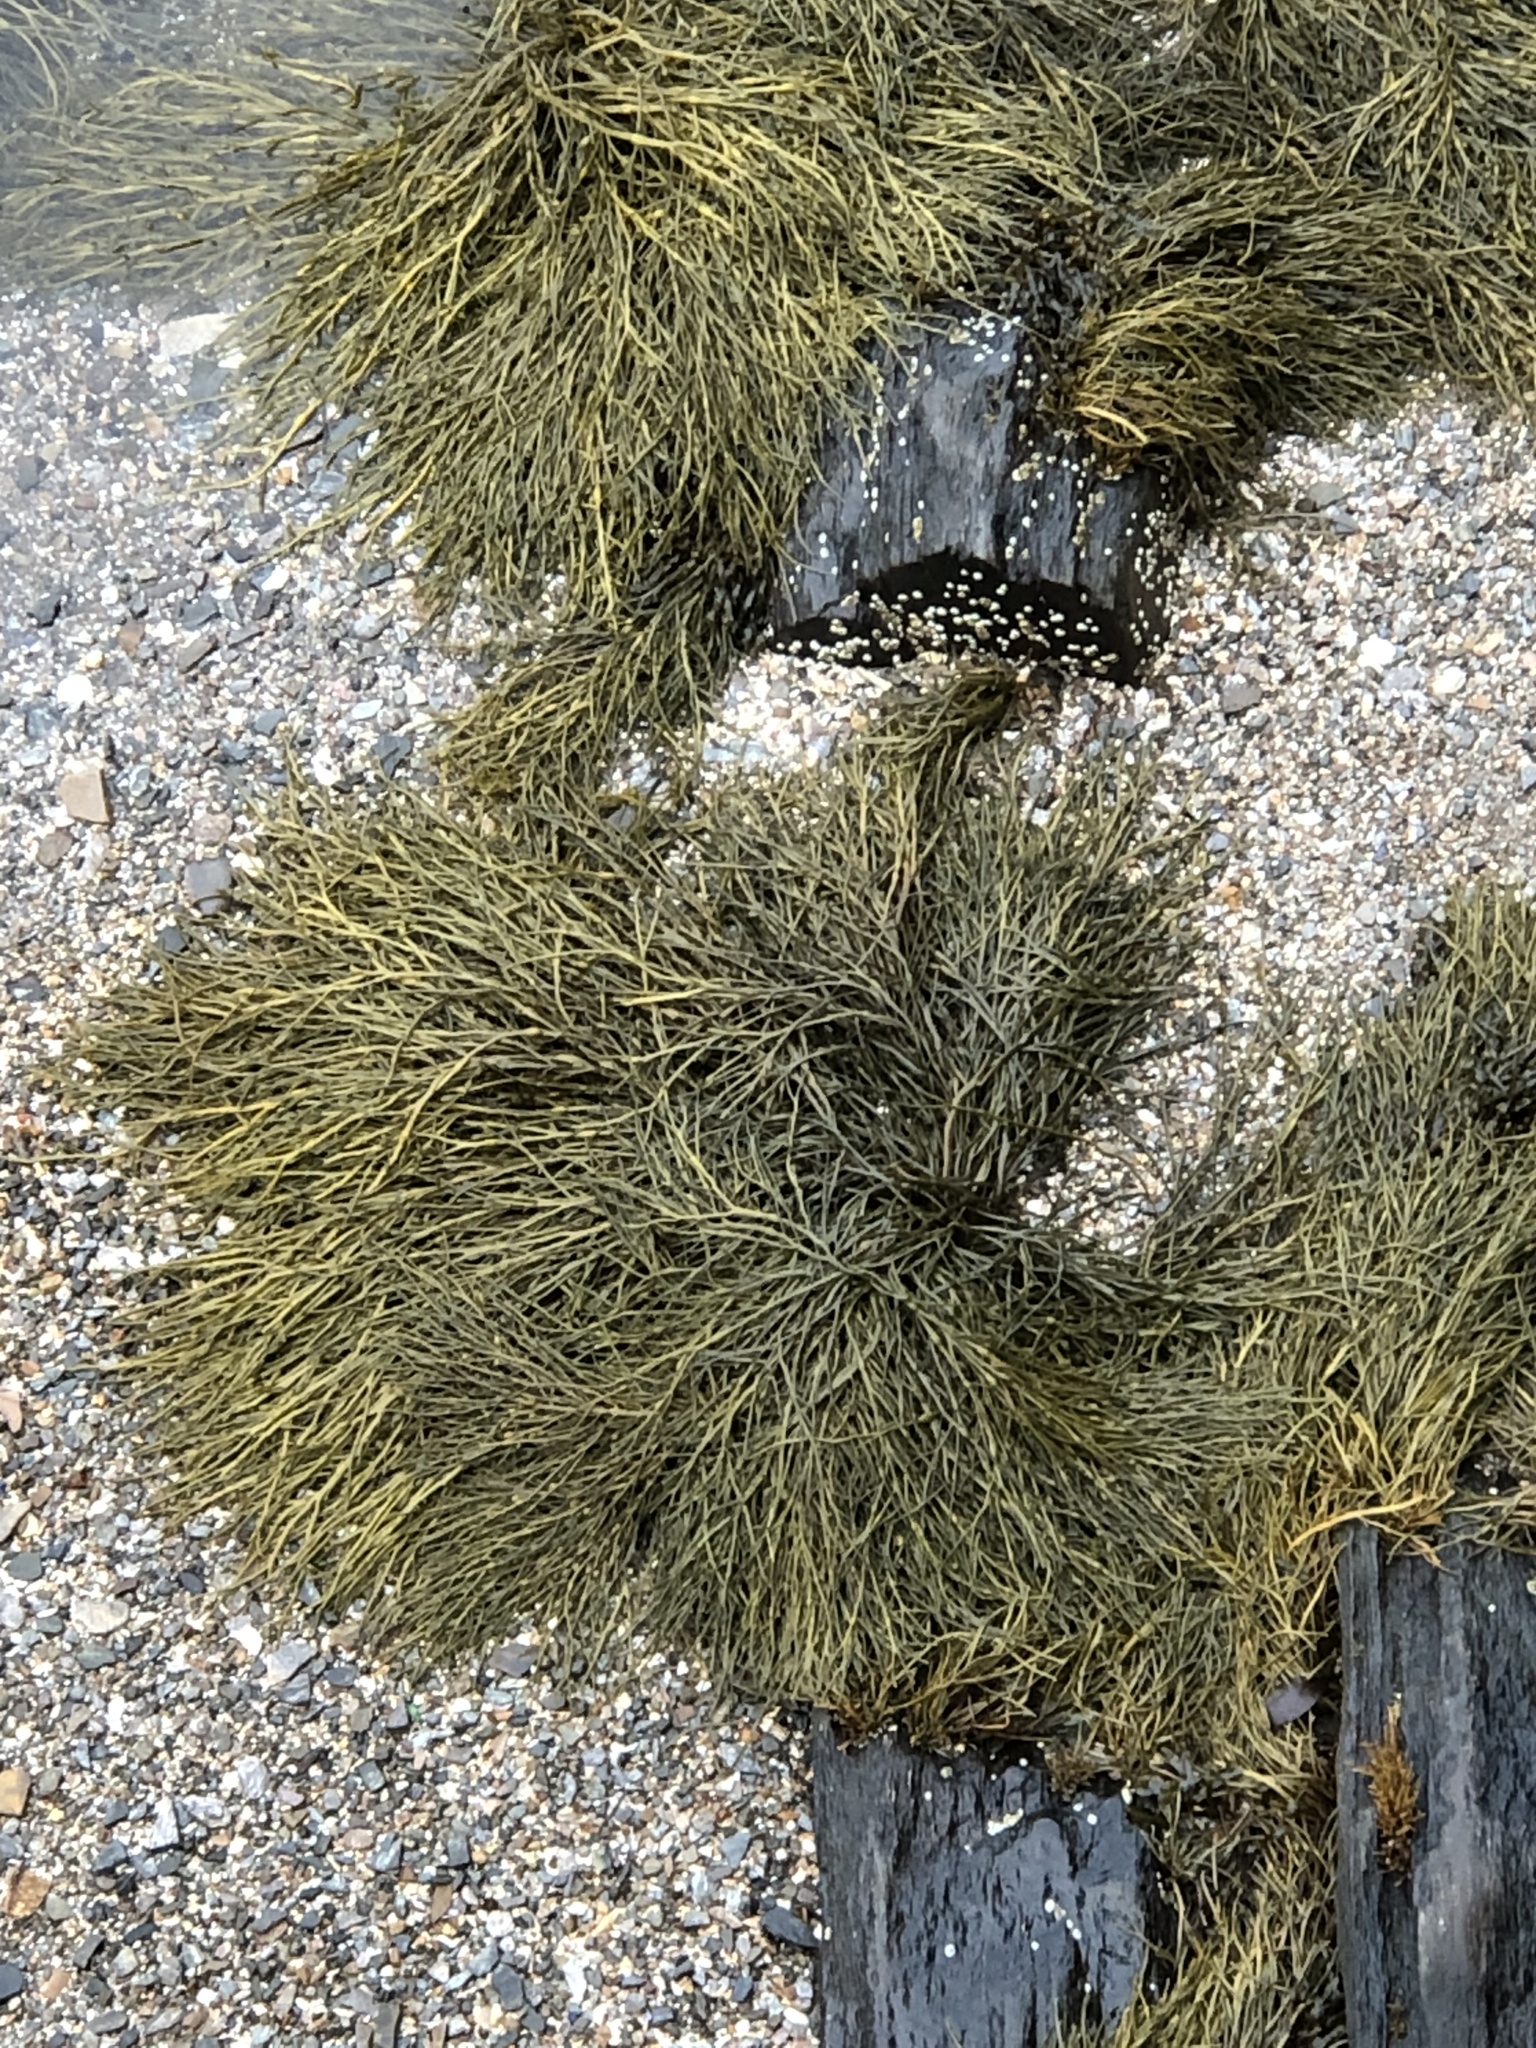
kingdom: Chromista
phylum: Ochrophyta
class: Phaeophyceae
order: Fucales
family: Fucaceae
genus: Ascophyllum
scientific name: Ascophyllum nodosum
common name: Knotted wrack
